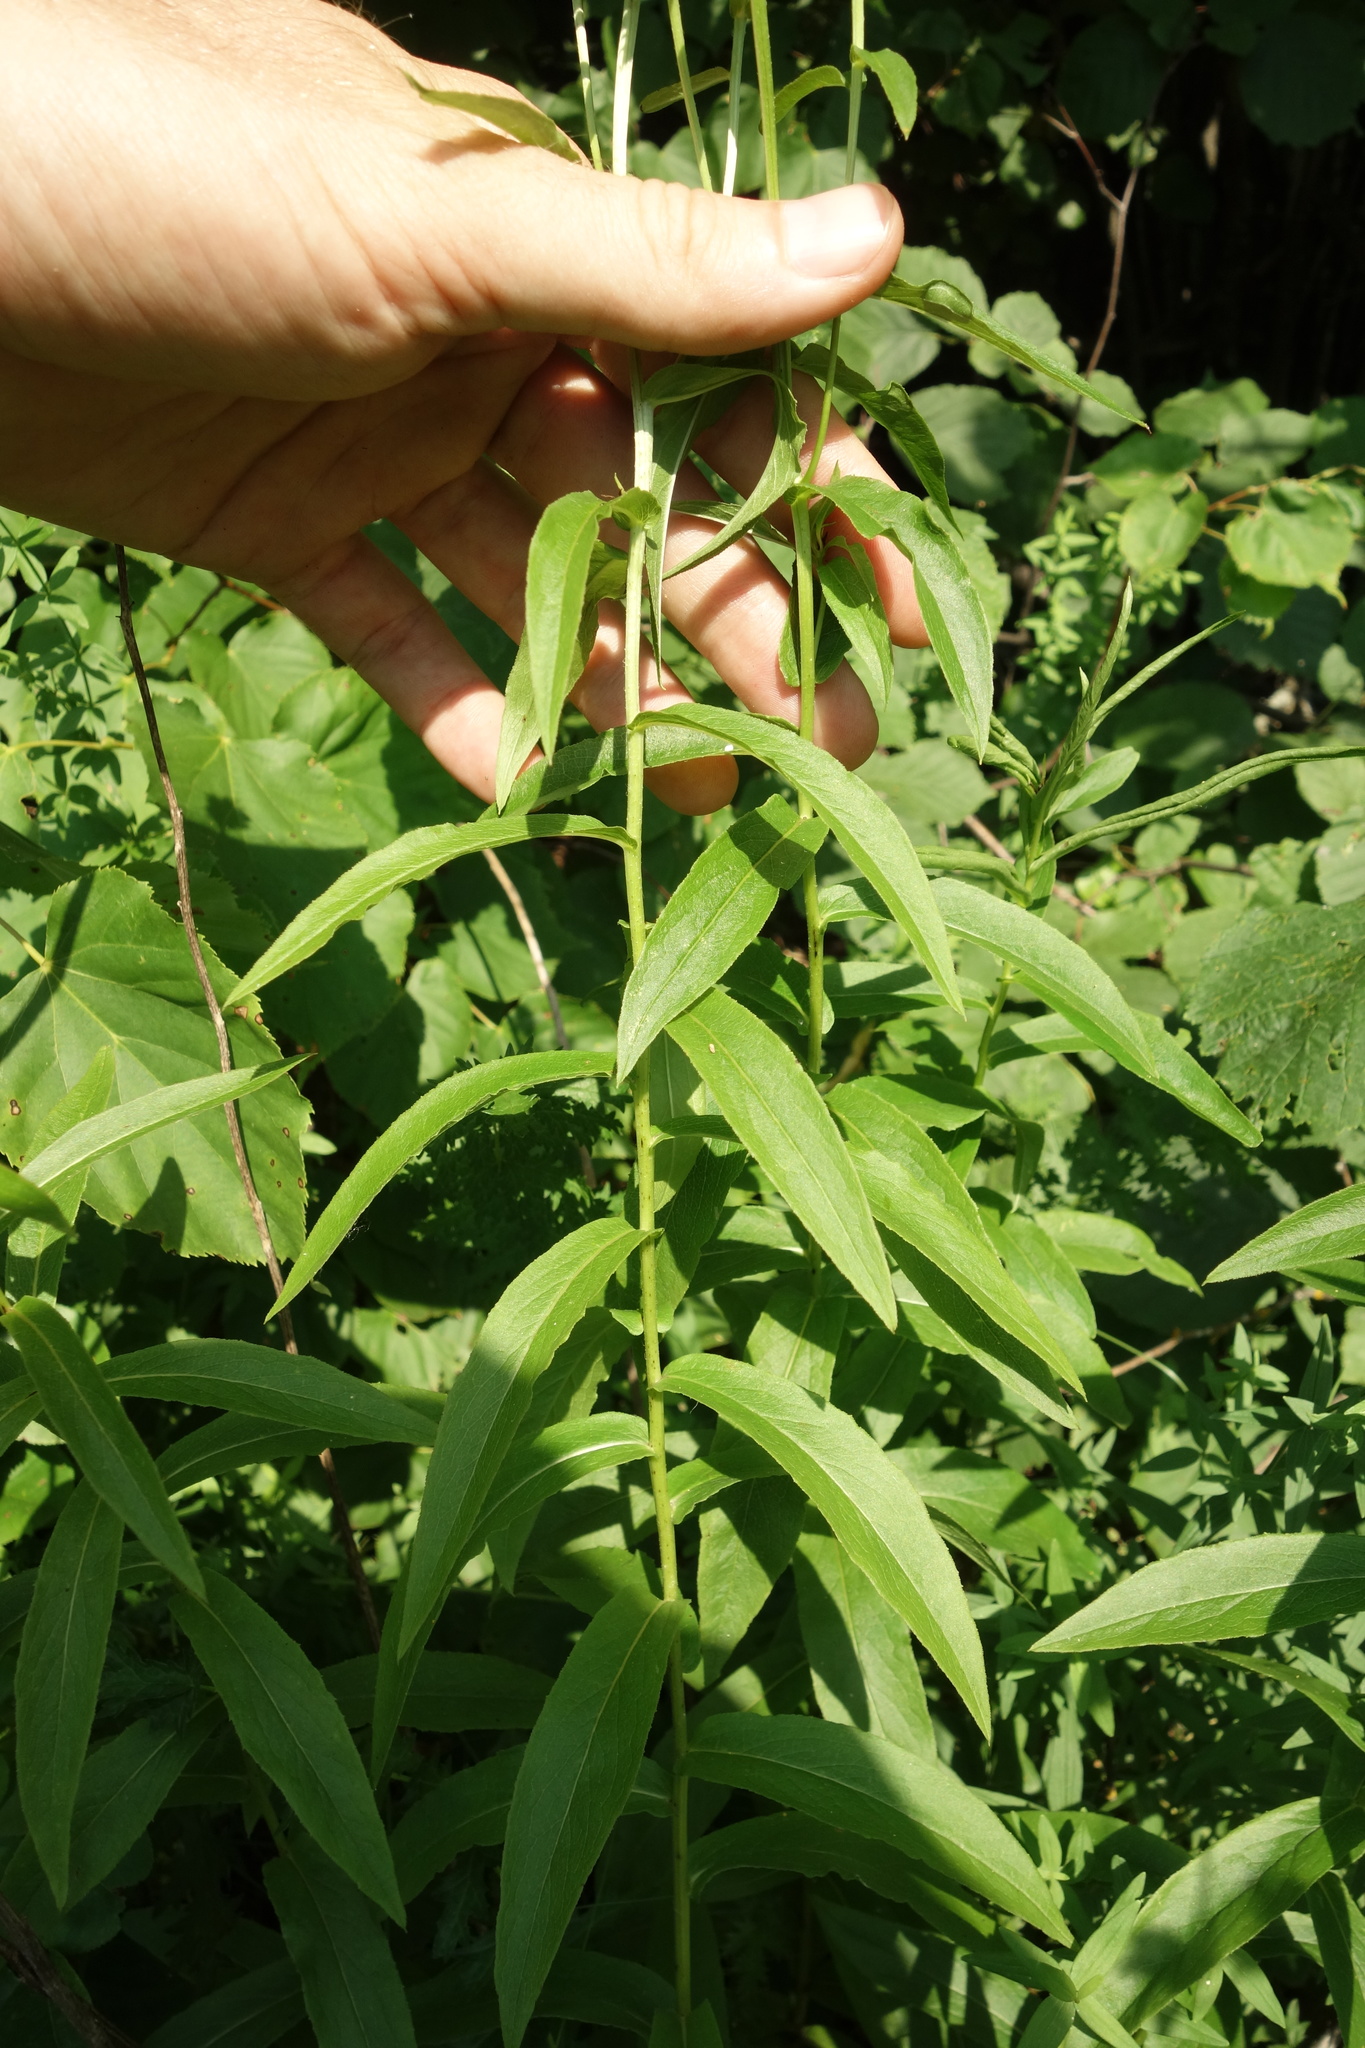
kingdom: Plantae
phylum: Tracheophyta
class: Magnoliopsida
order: Asterales
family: Asteraceae
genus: Pentanema
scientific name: Pentanema salicinum
